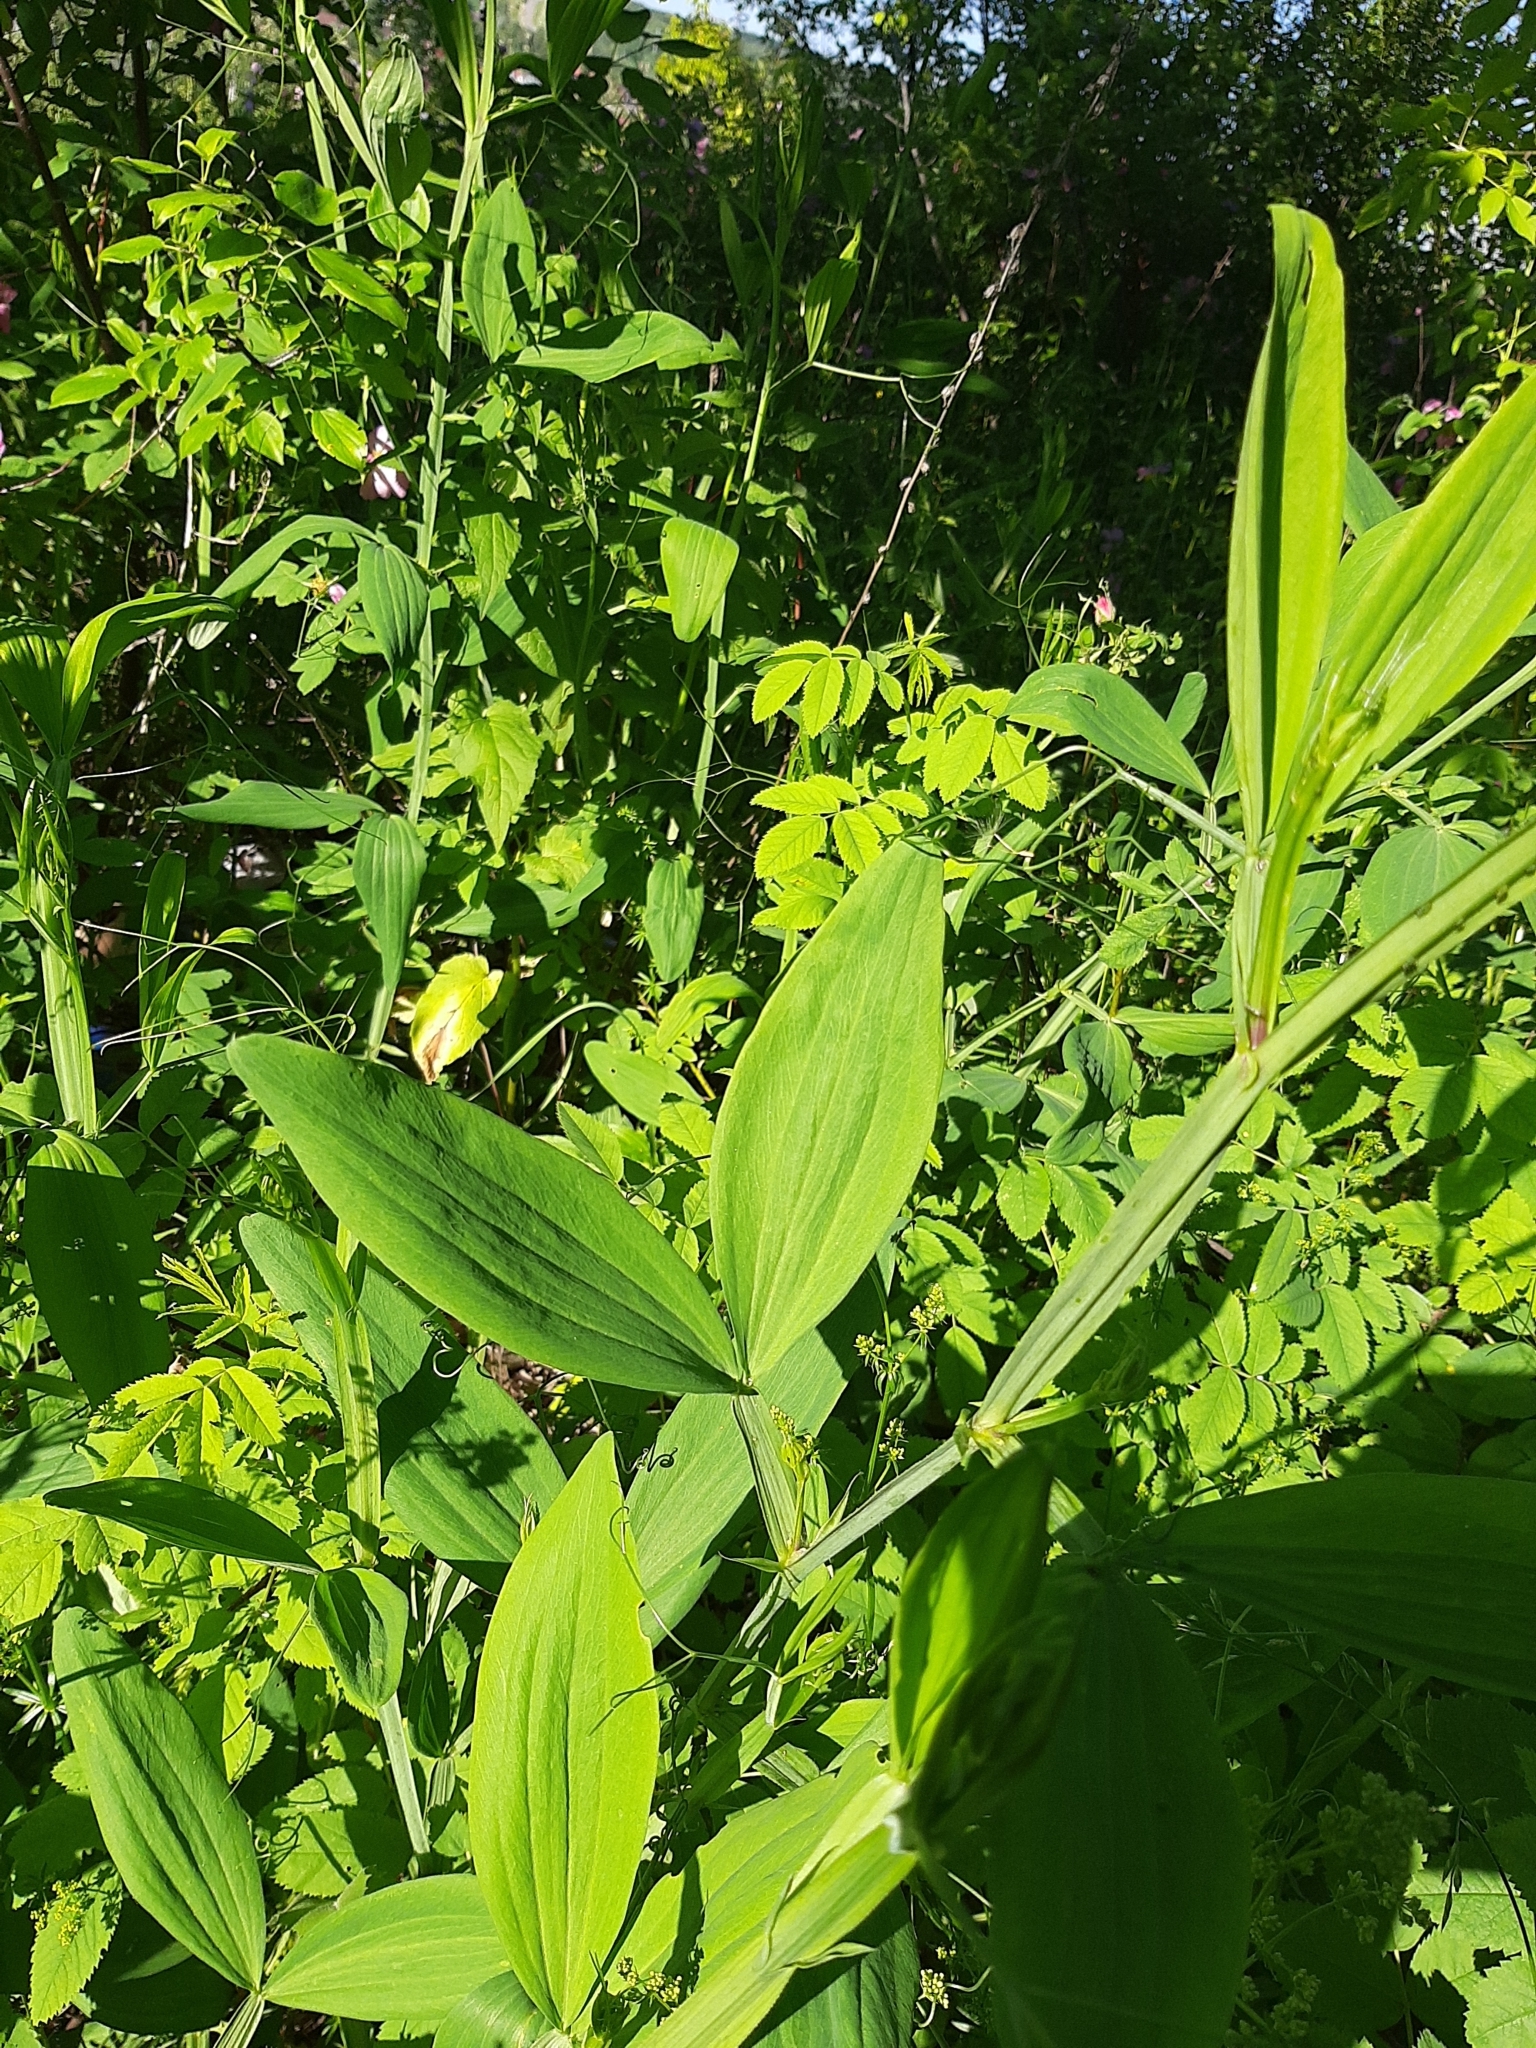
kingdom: Plantae
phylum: Tracheophyta
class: Magnoliopsida
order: Fabales
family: Fabaceae
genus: Lathyrus
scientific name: Lathyrus sylvestris
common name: Flat pea
